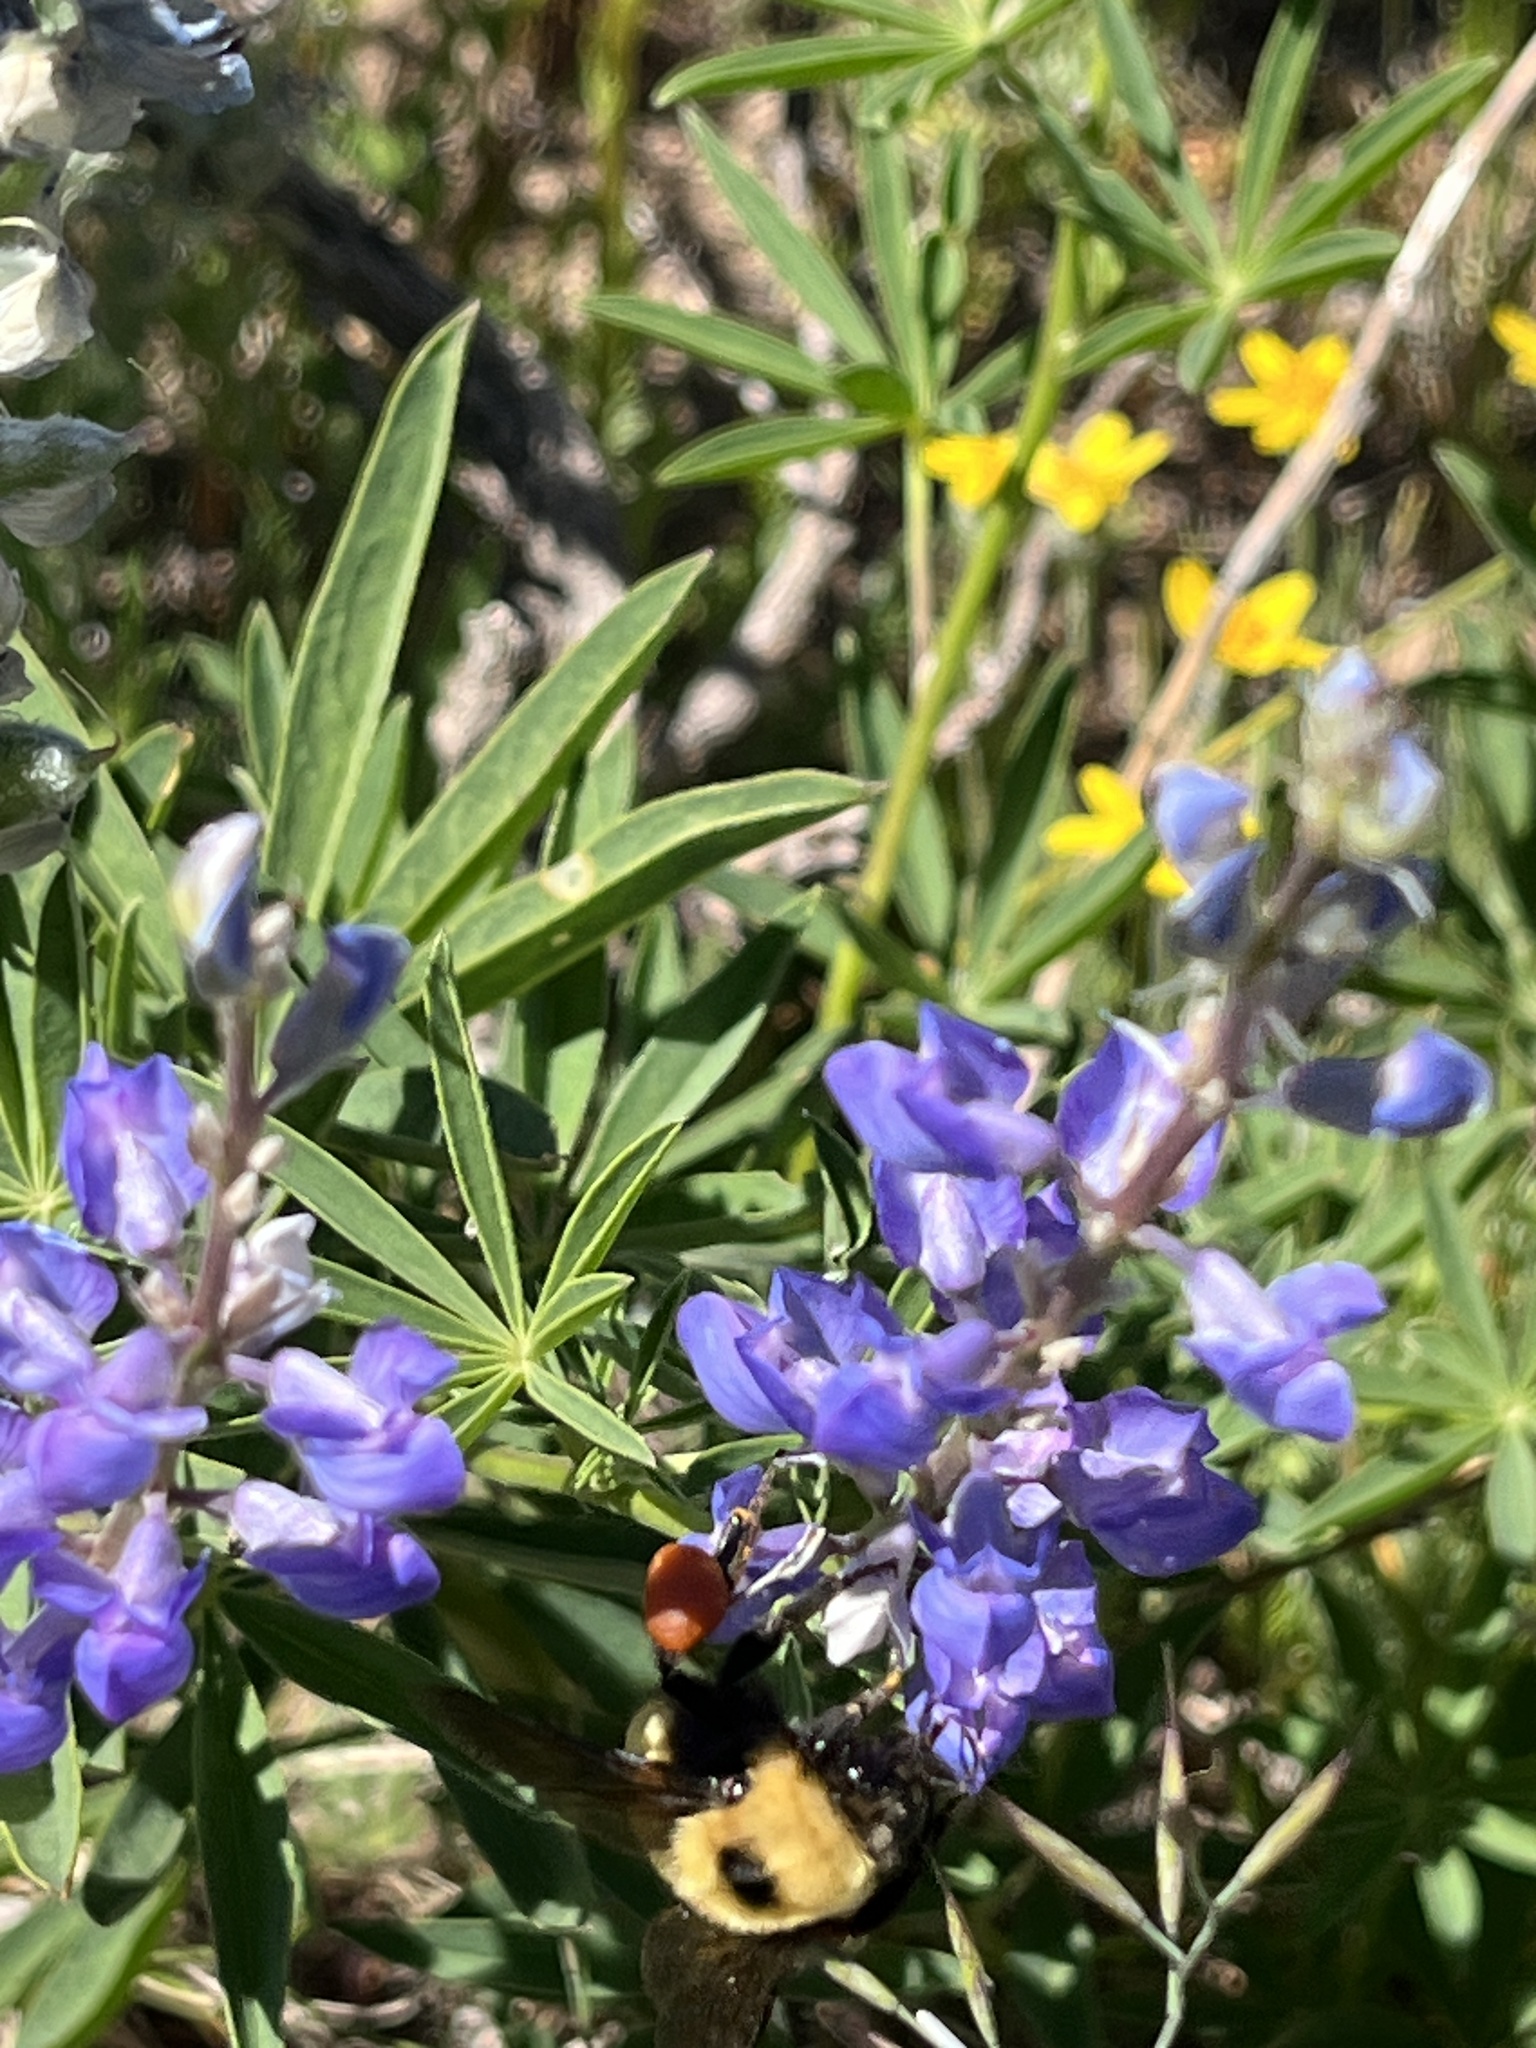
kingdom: Animalia
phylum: Arthropoda
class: Insecta
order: Hymenoptera
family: Apidae
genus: Bombus
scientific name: Bombus nevadensis
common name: Nevada bumble bee
